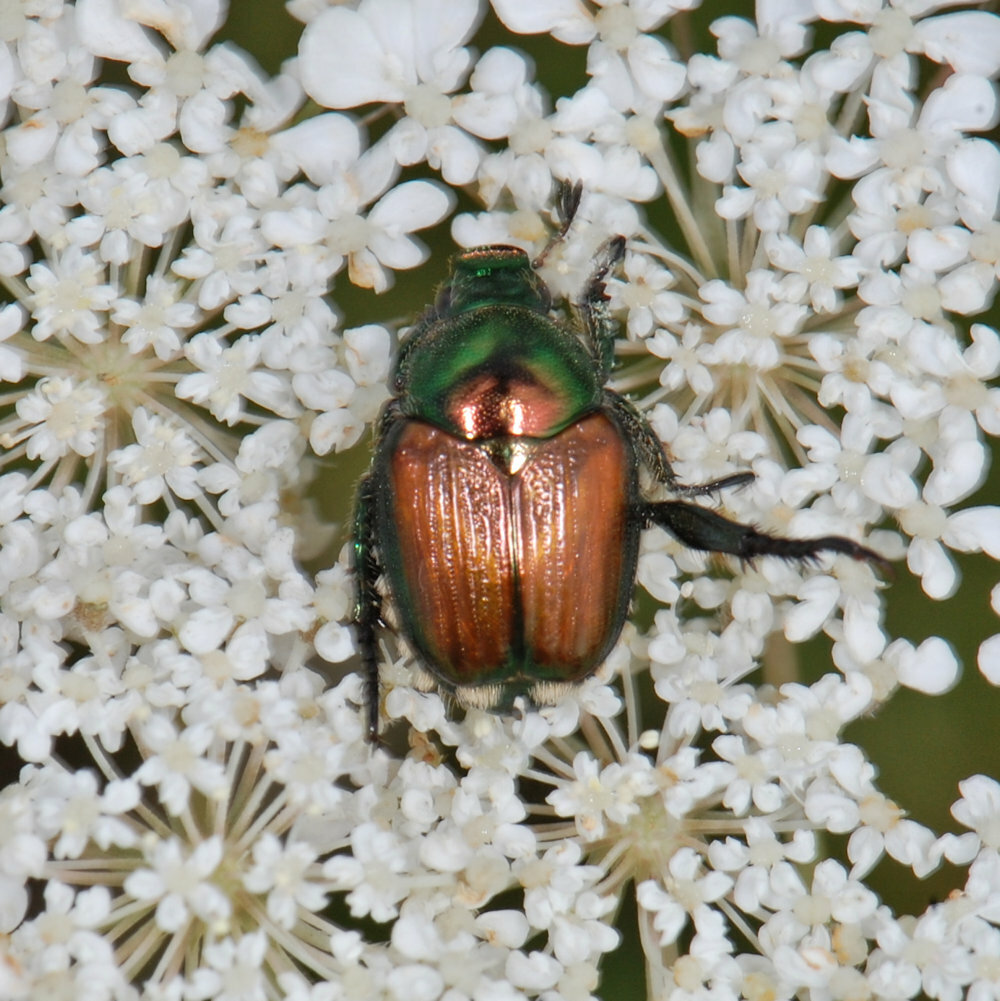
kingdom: Animalia
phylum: Arthropoda
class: Insecta
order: Coleoptera
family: Scarabaeidae
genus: Popillia
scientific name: Popillia japonica
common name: Japanese beetle
